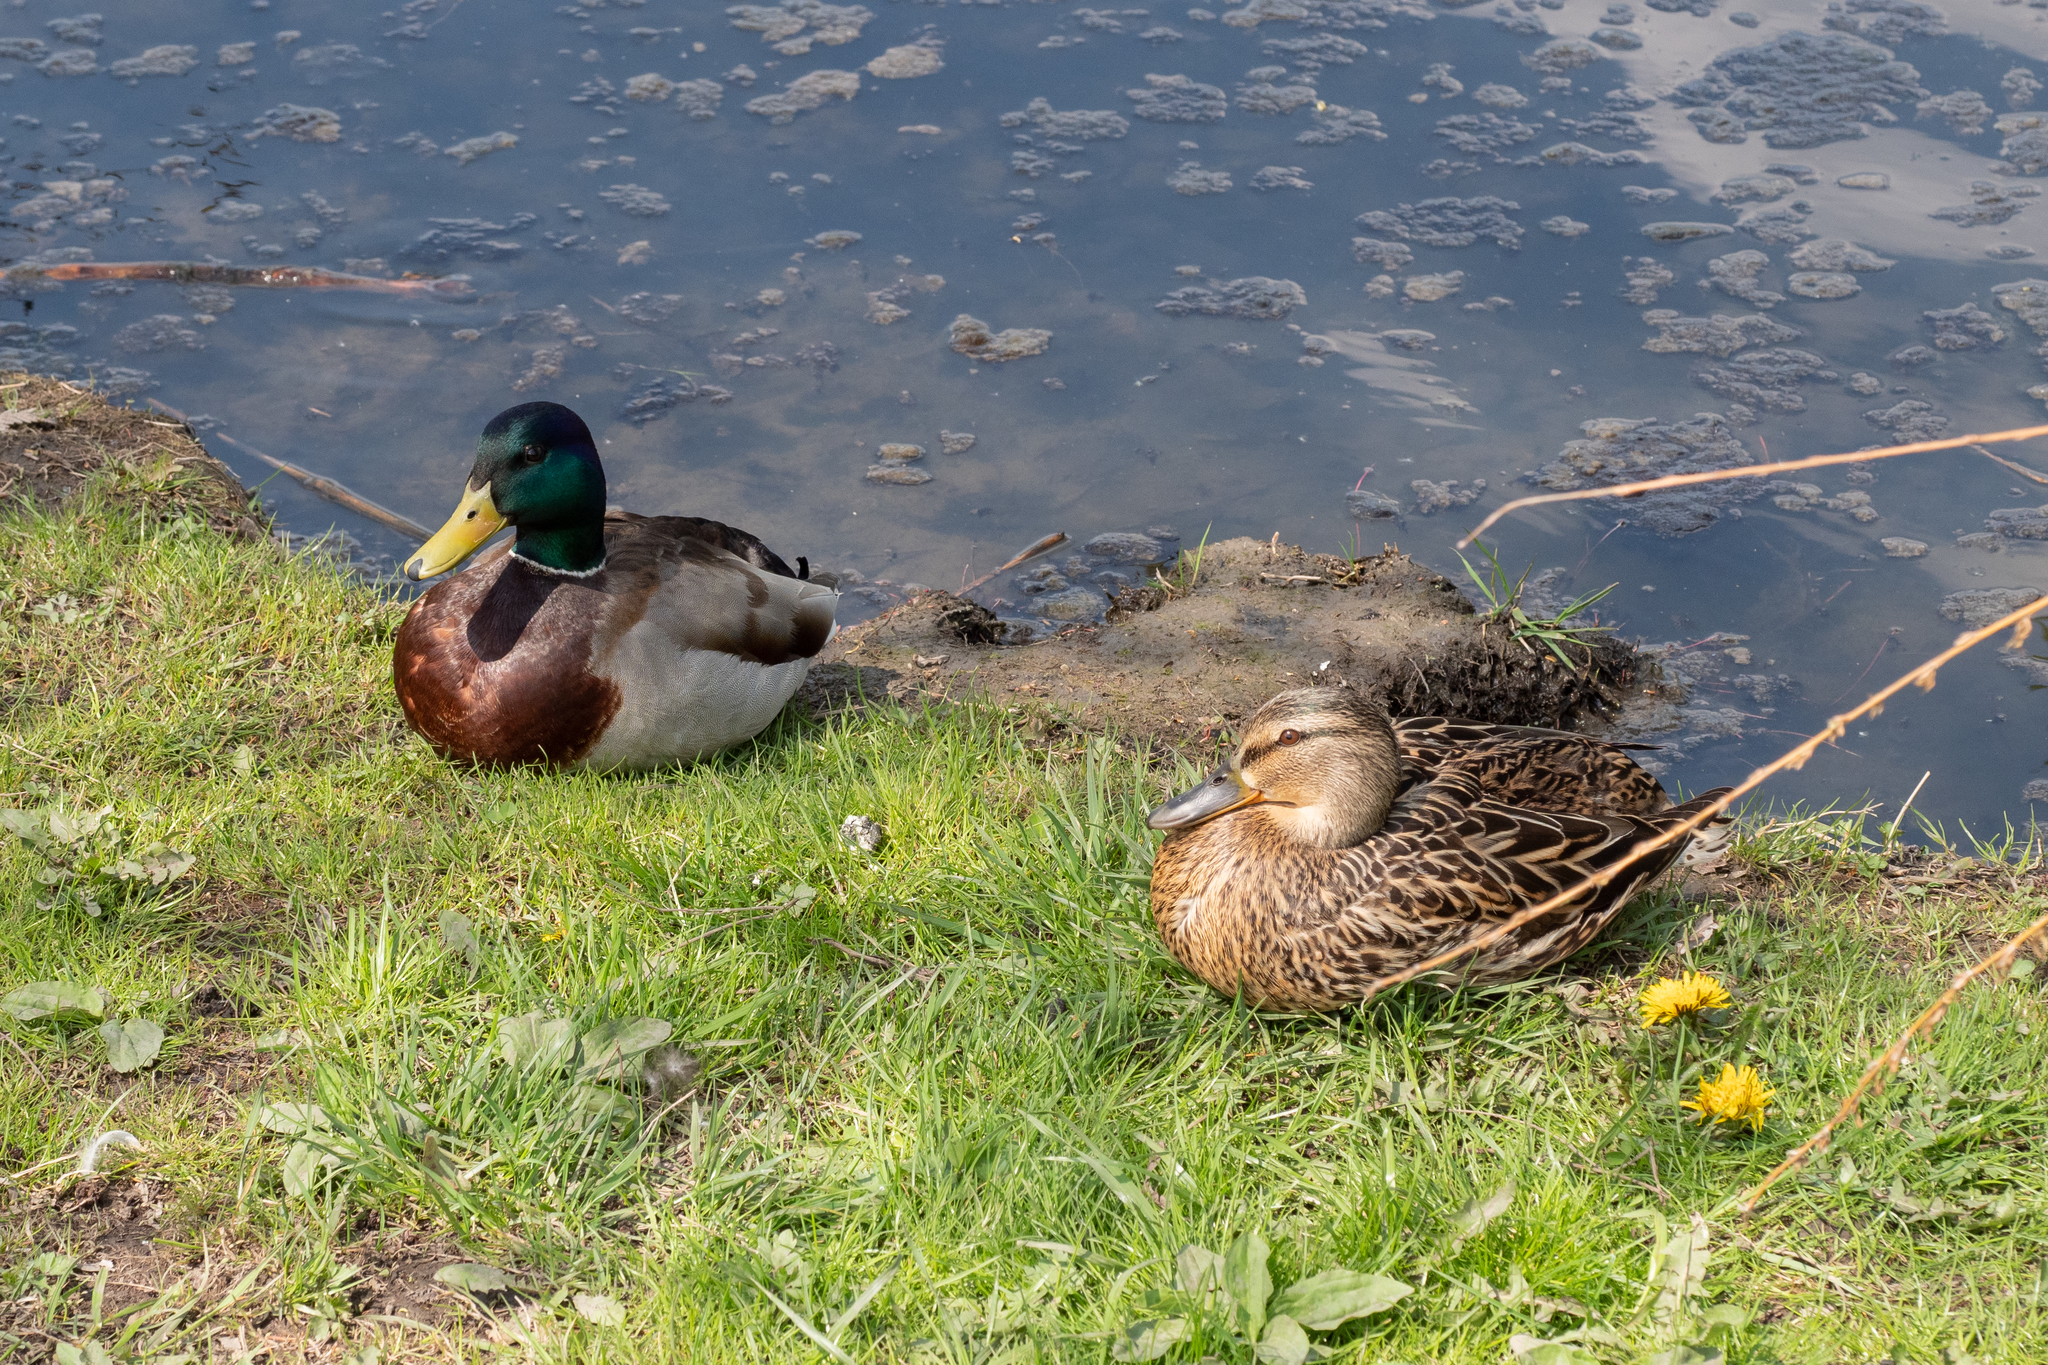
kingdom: Animalia
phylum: Chordata
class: Aves
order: Anseriformes
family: Anatidae
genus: Anas
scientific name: Anas platyrhynchos
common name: Mallard
